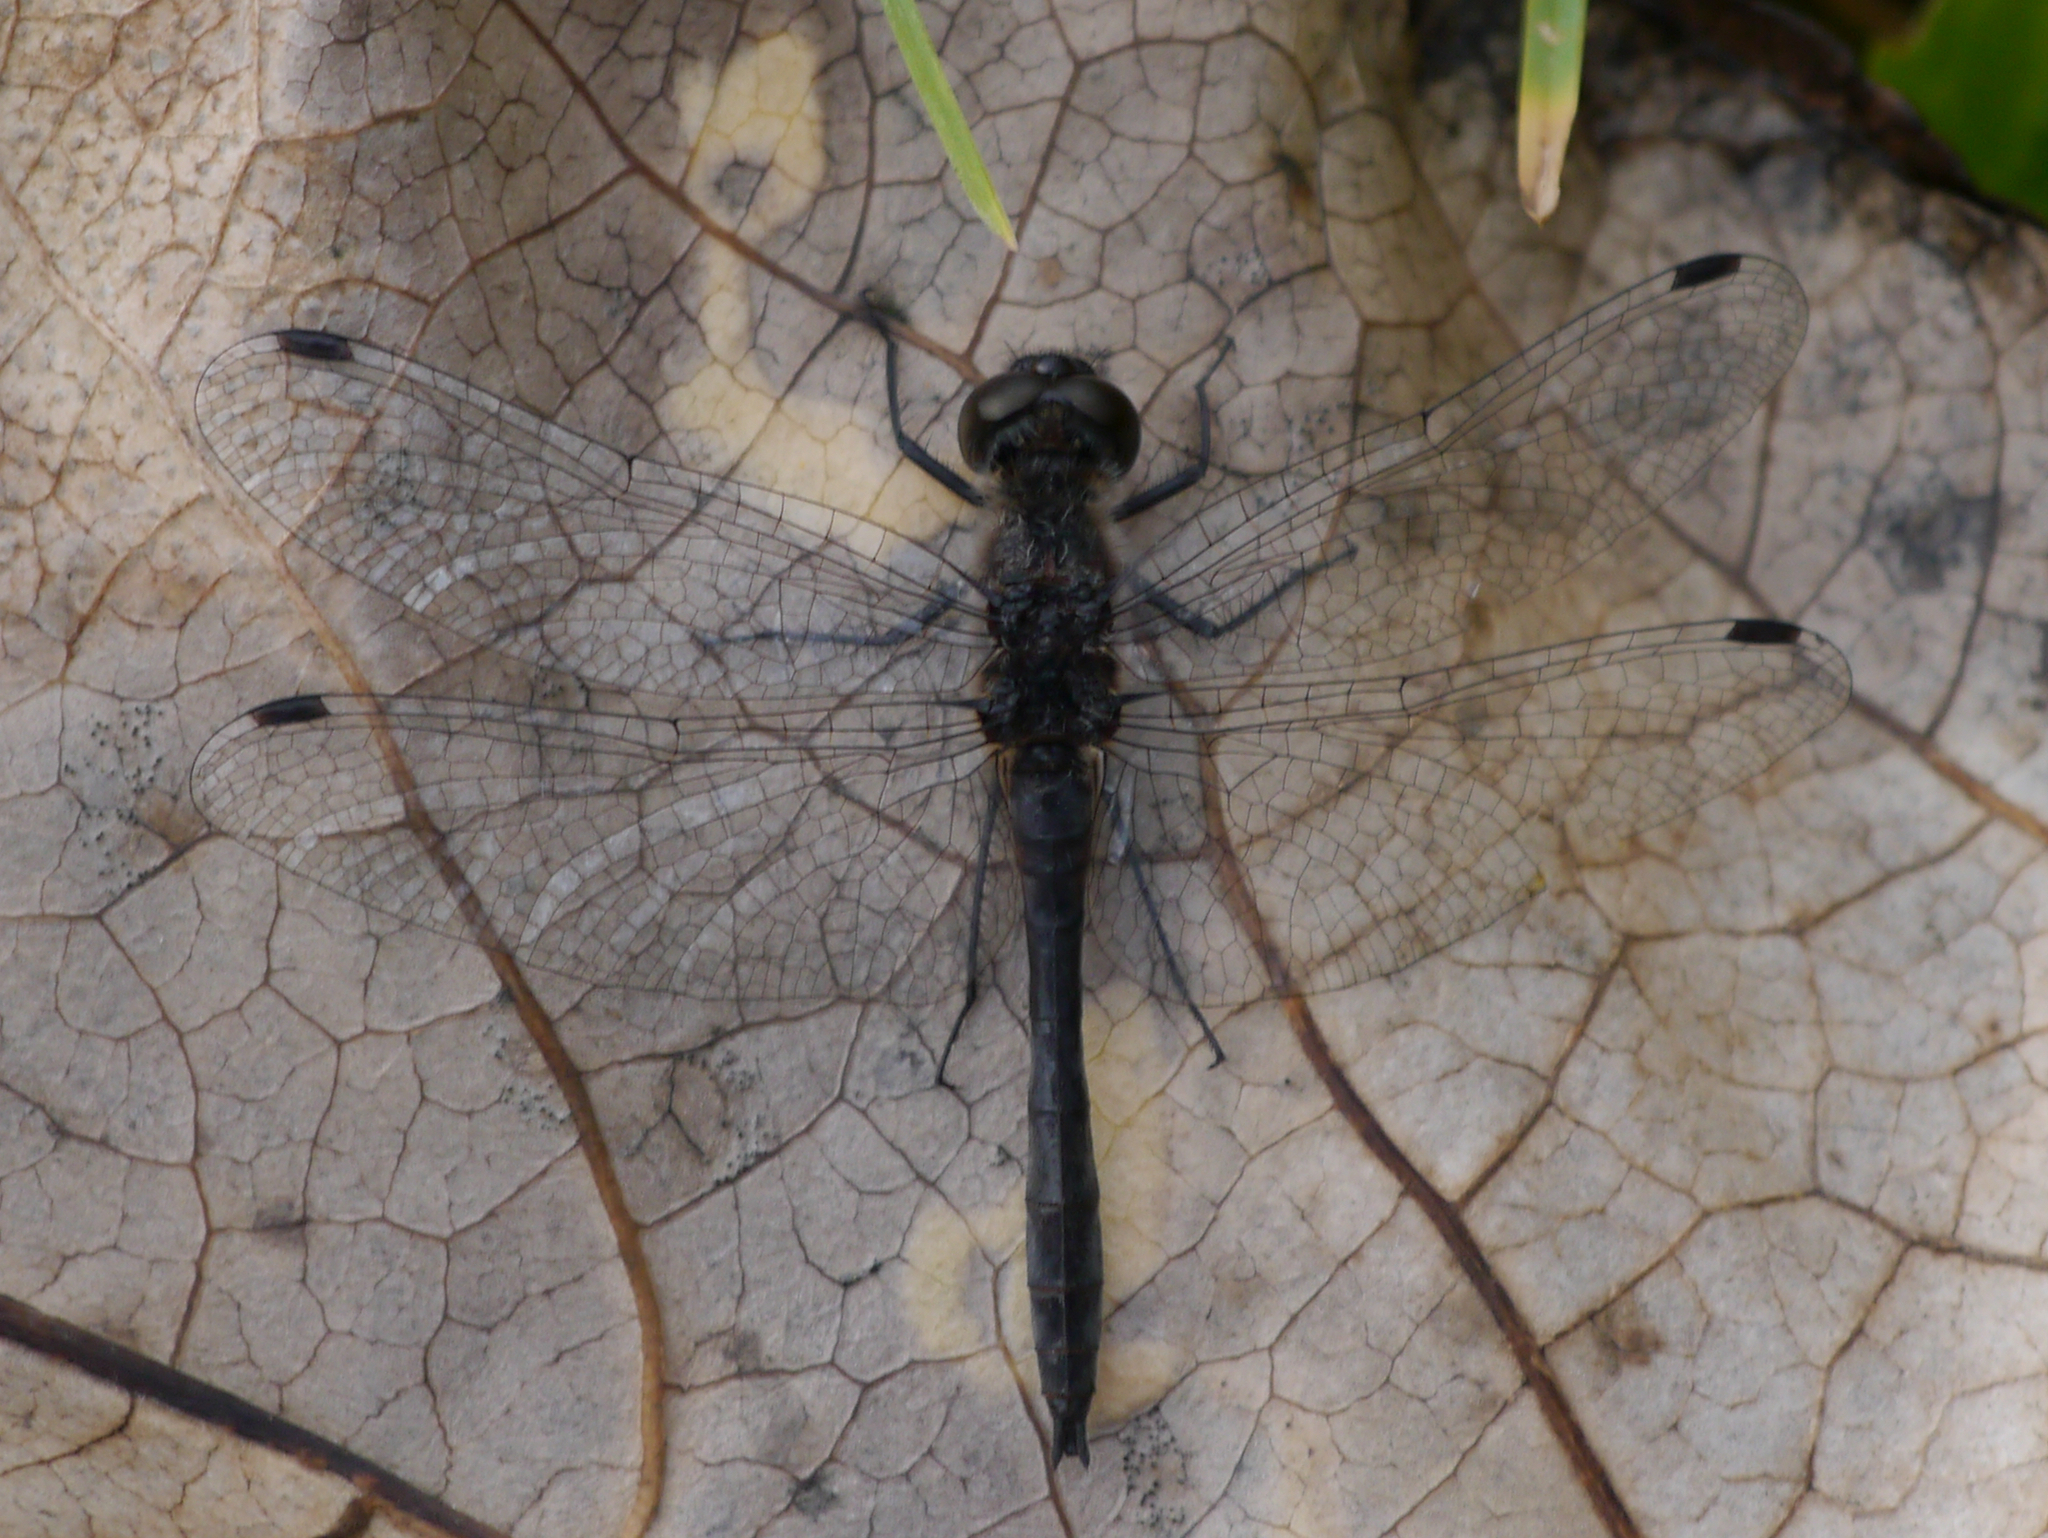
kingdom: Animalia
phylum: Arthropoda
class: Insecta
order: Odonata
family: Libellulidae
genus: Sympetrum
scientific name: Sympetrum danae
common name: Black darter
